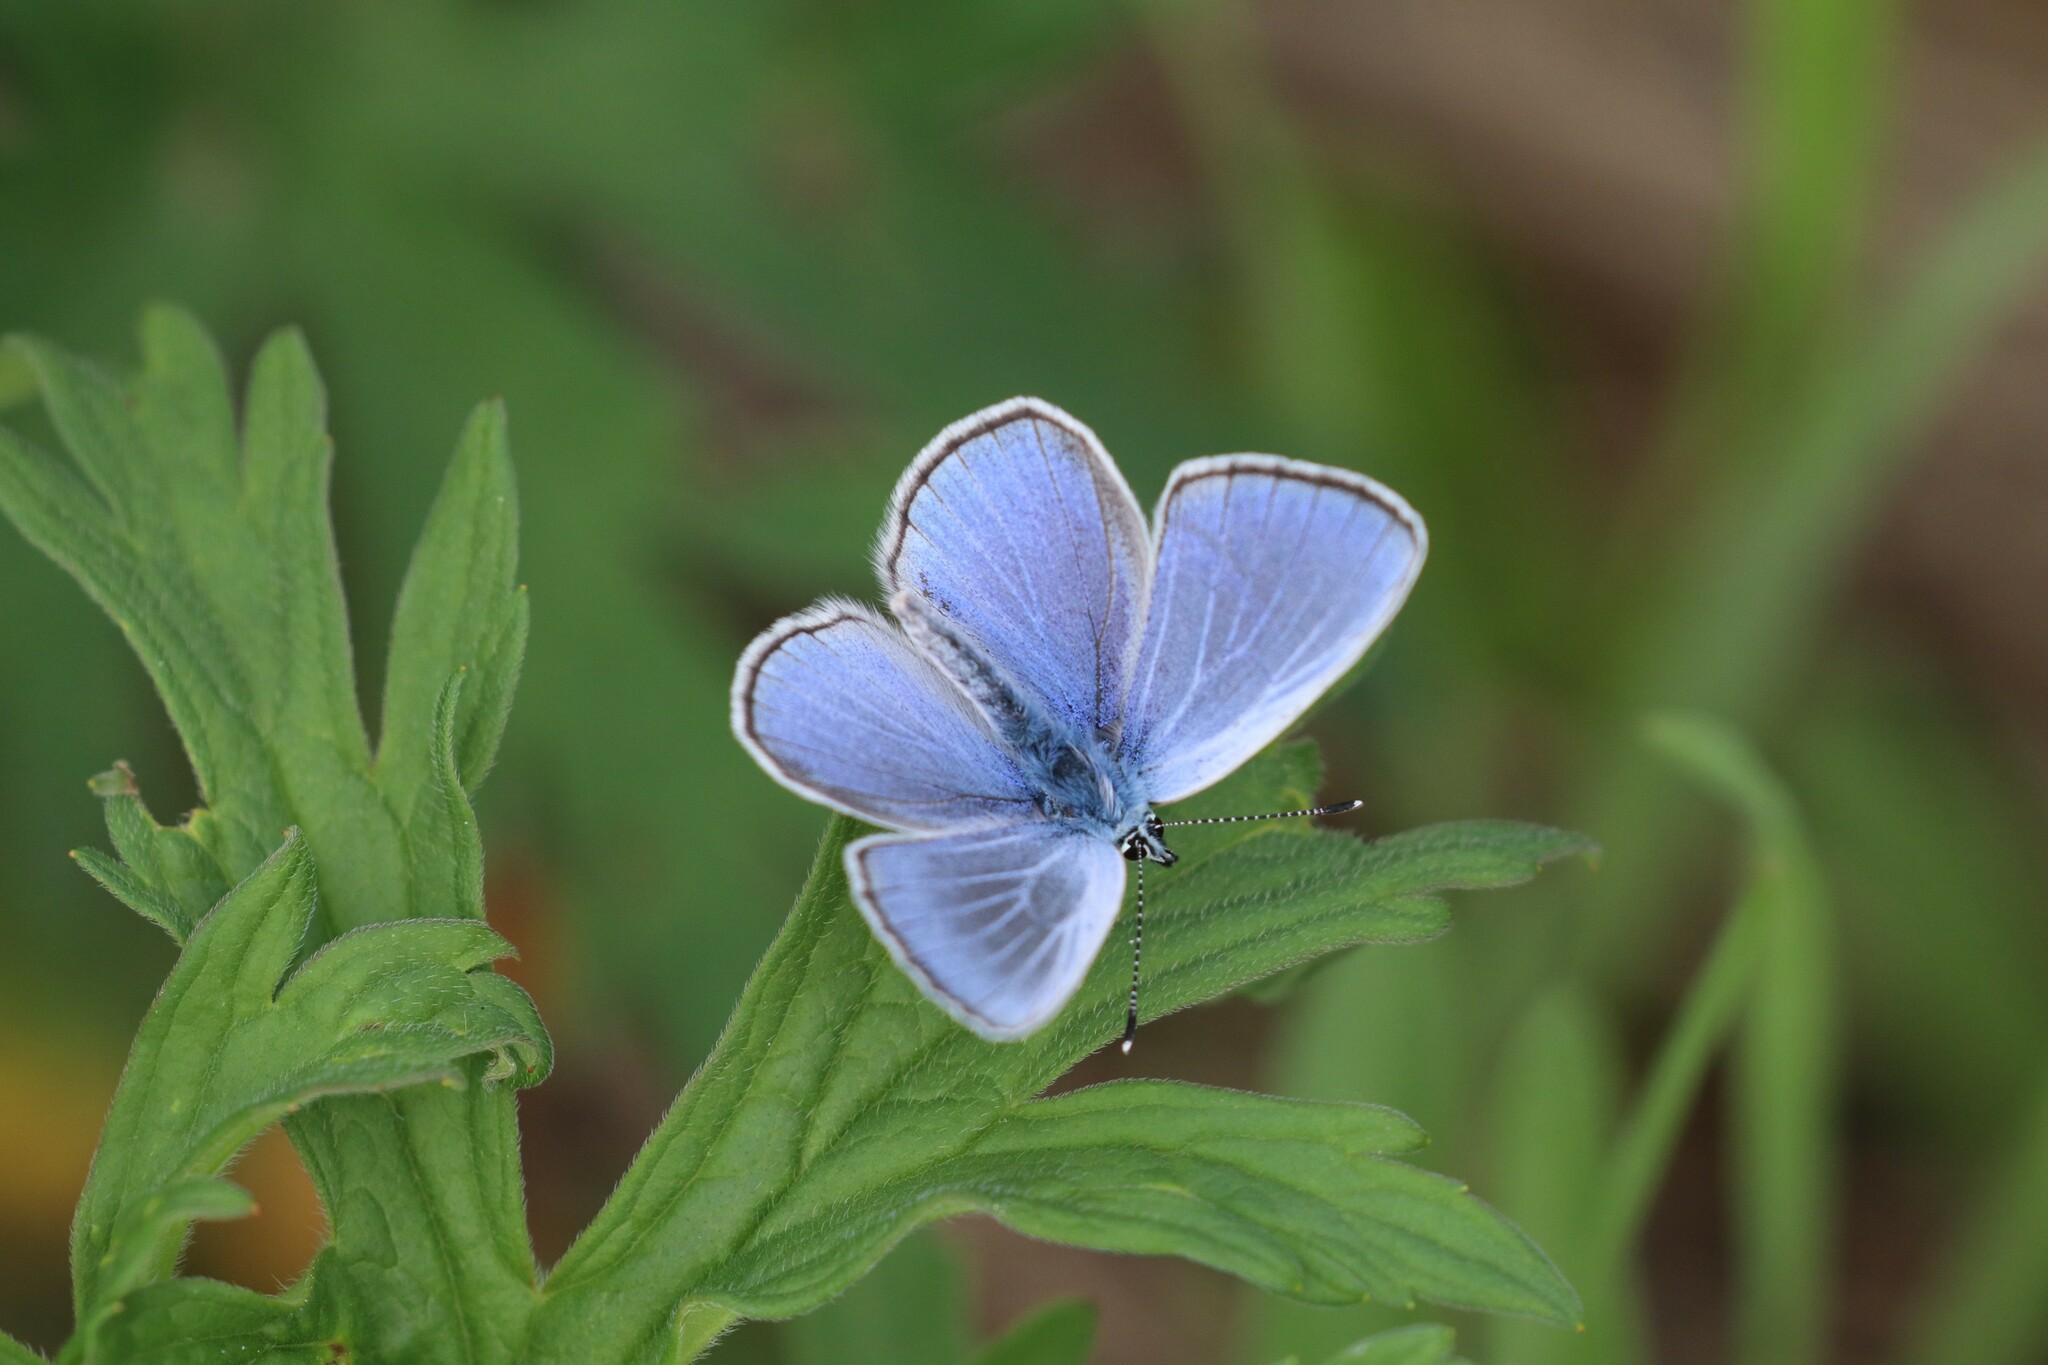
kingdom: Animalia
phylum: Arthropoda
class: Insecta
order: Lepidoptera
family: Lycaenidae
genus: Glaucopsyche
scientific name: Glaucopsyche alexis
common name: Green-underside blue
